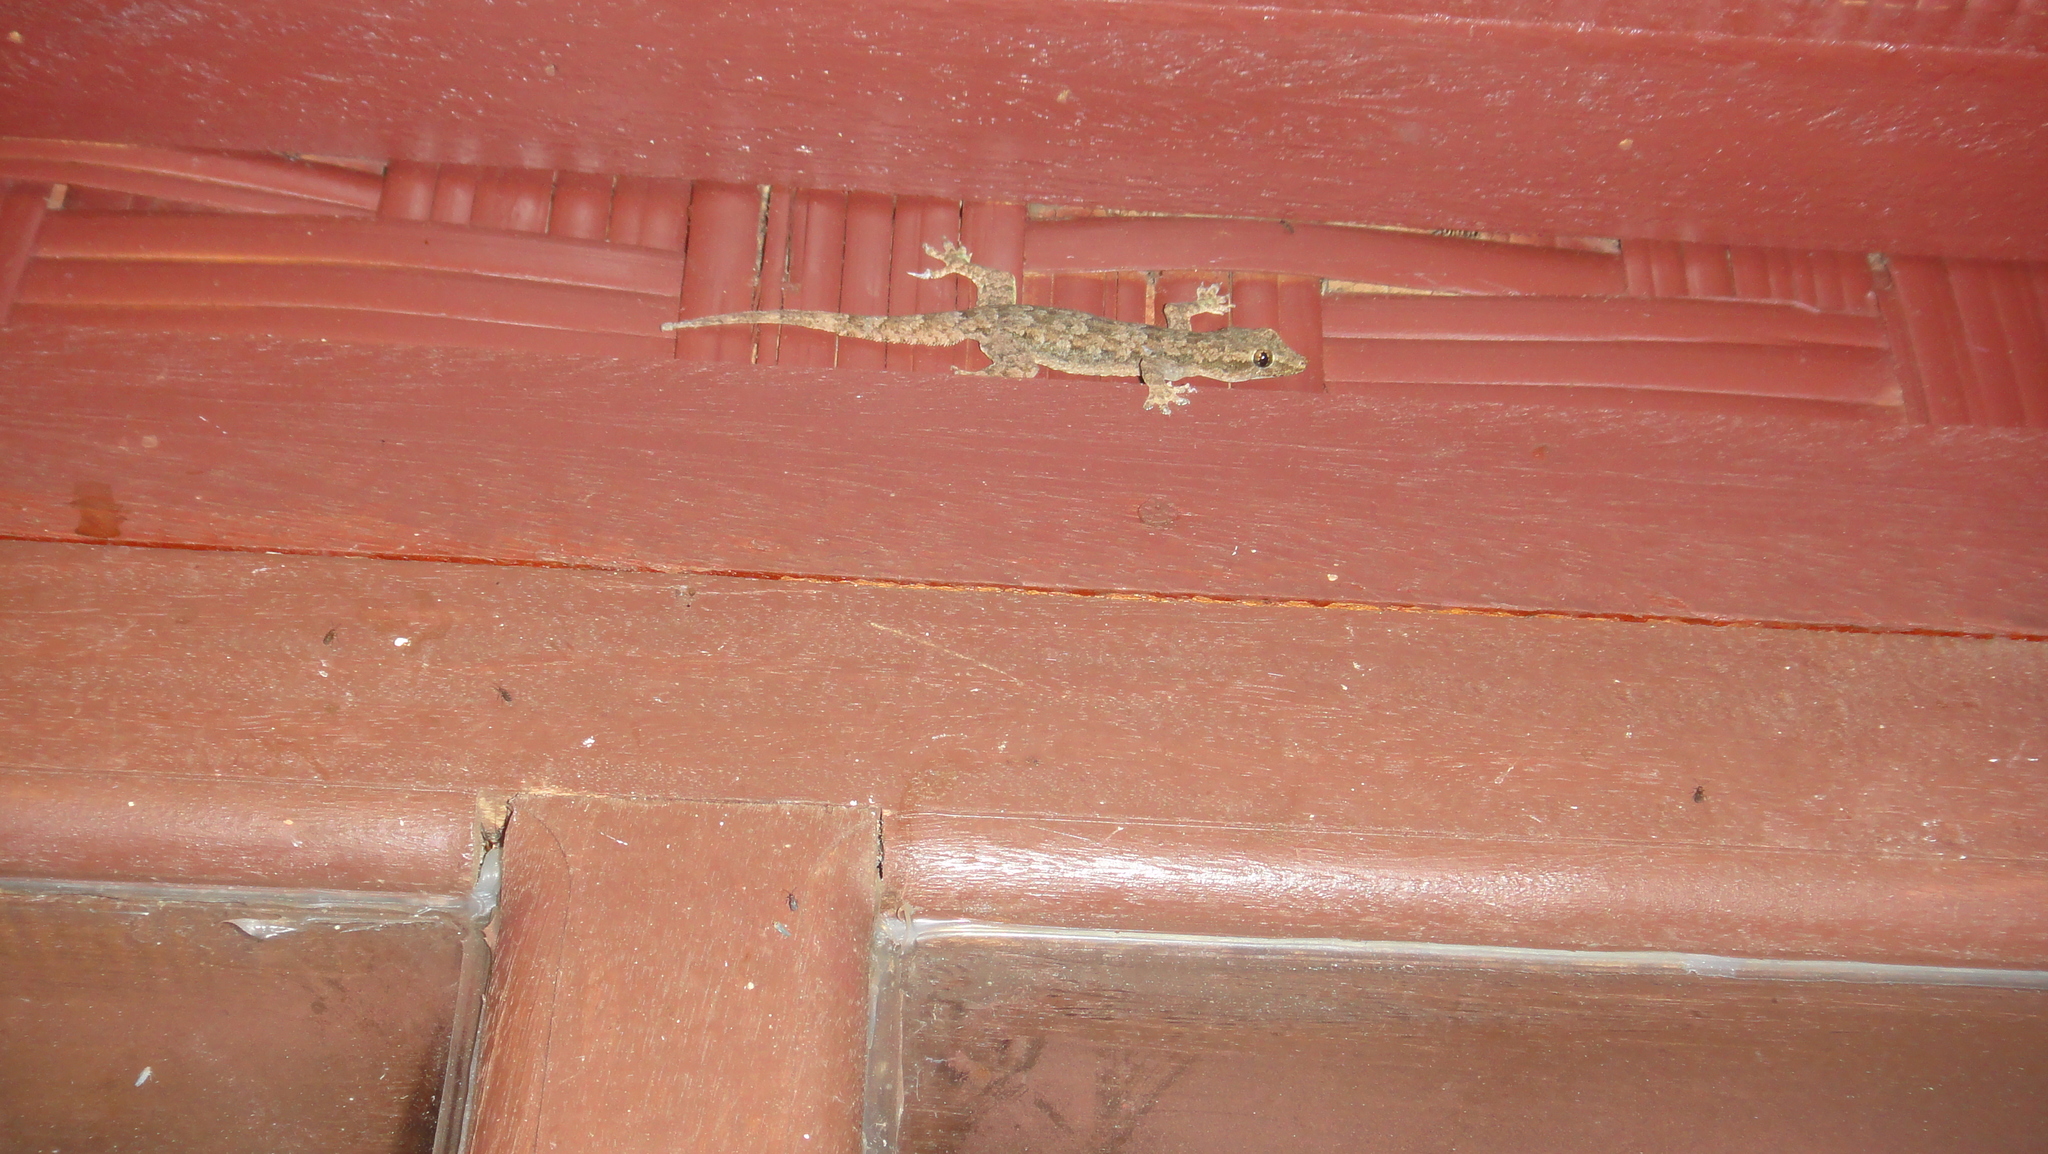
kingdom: Animalia
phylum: Chordata
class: Squamata
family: Gekkonidae
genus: Hemidactylus
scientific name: Hemidactylus platyurus
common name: Flat-tailed house gecko
